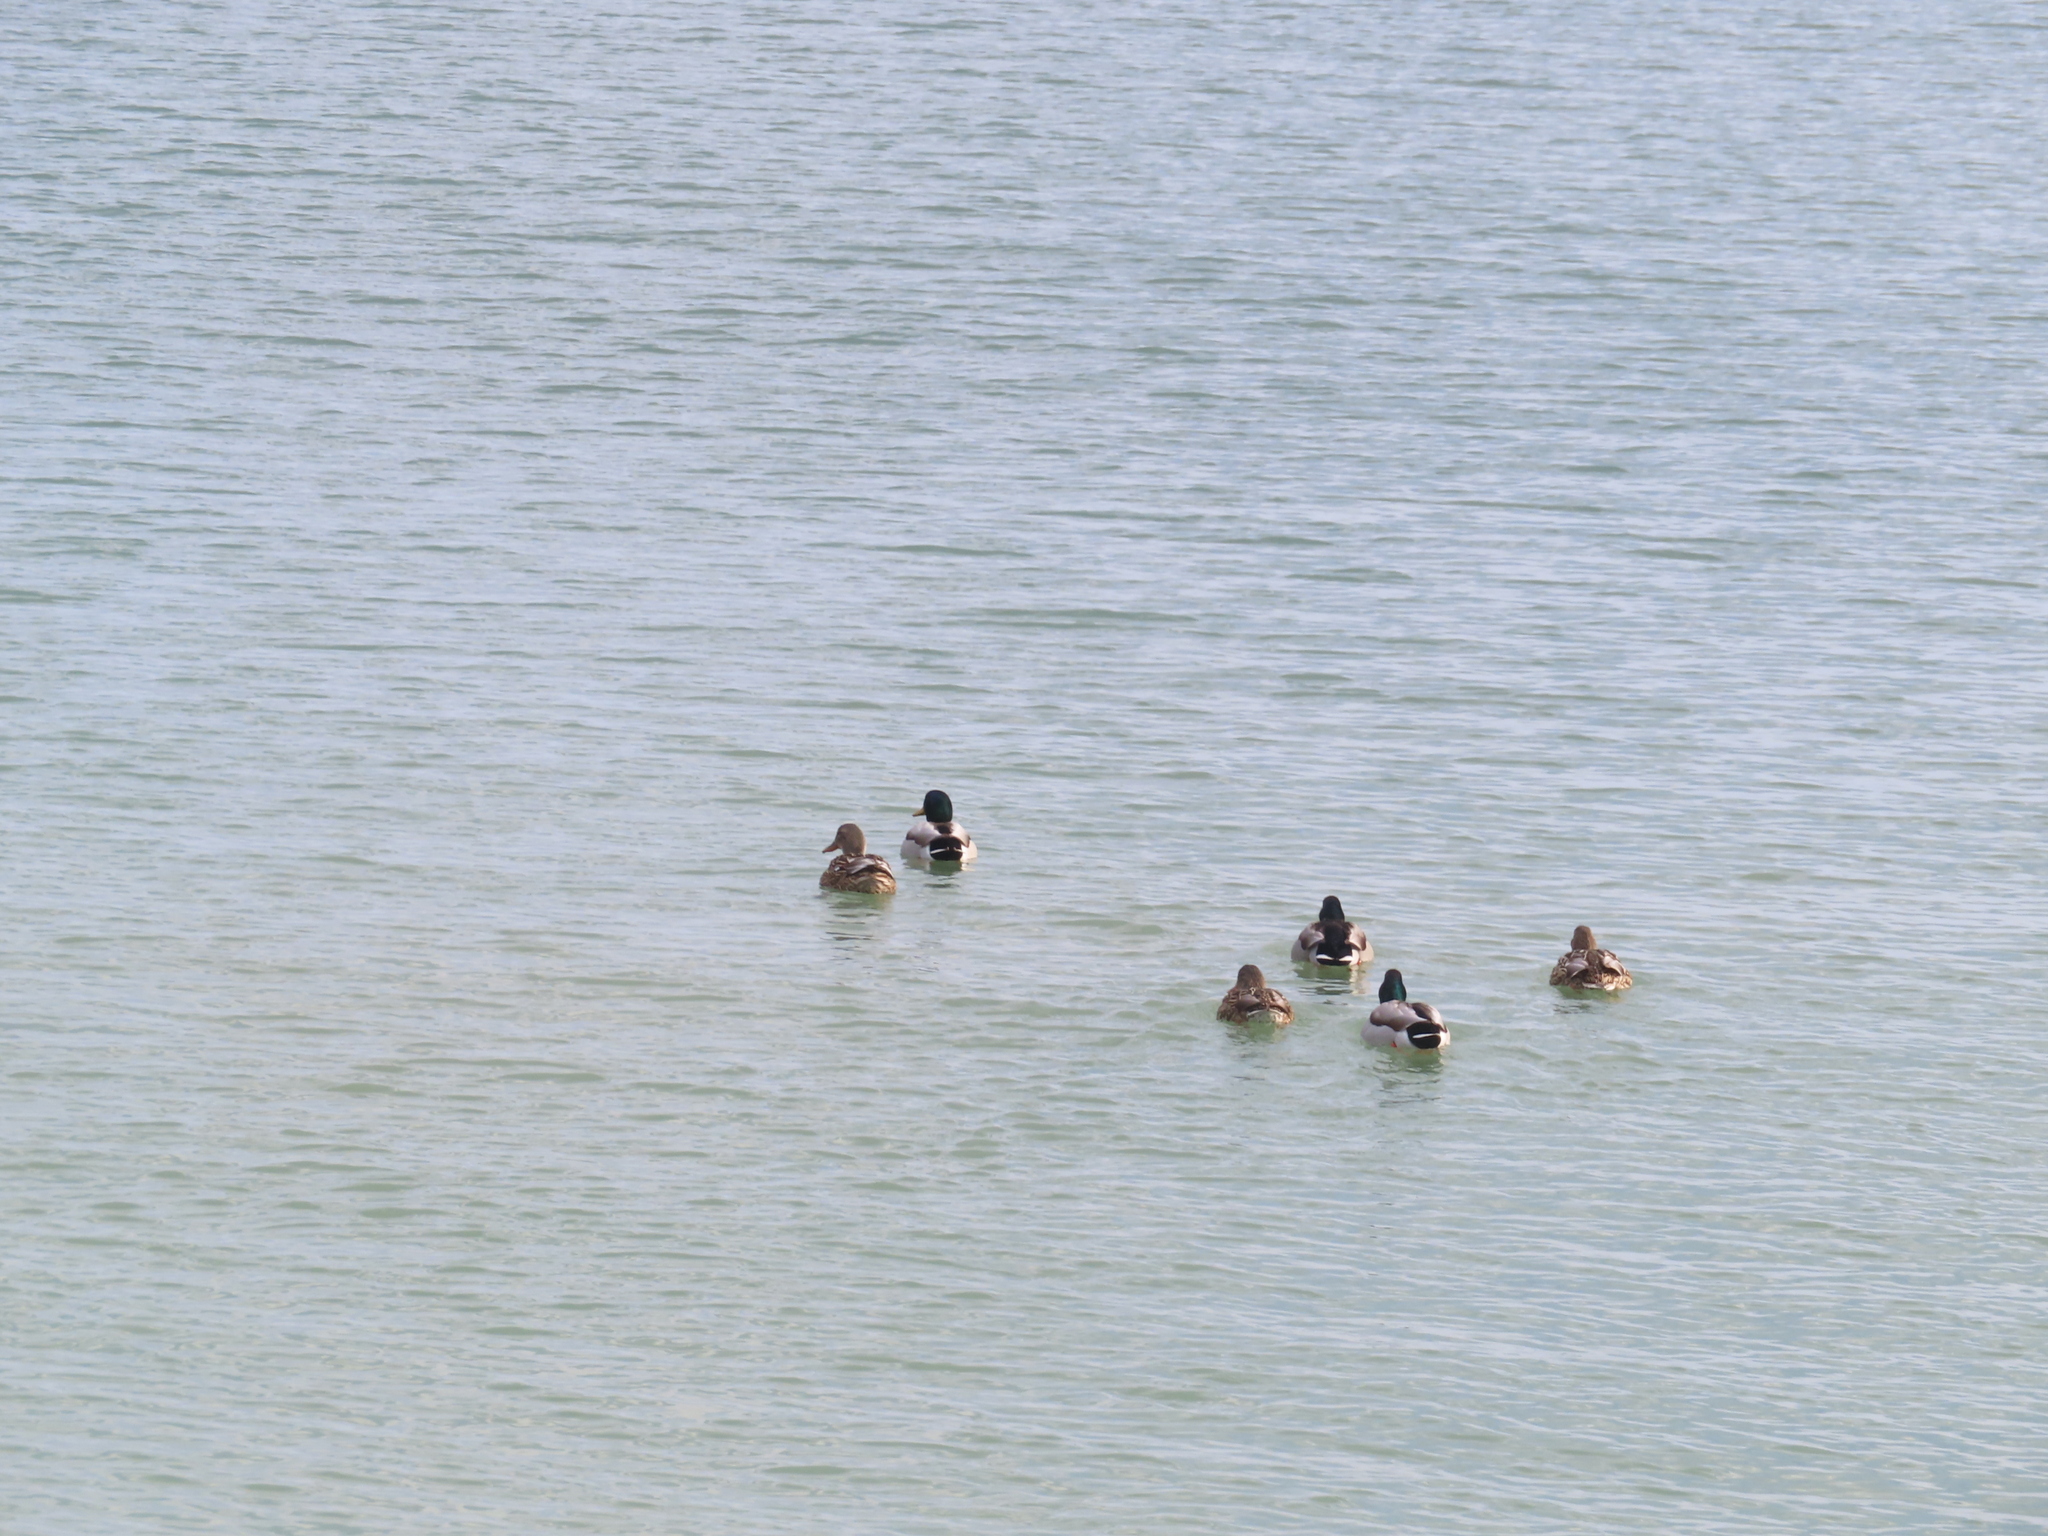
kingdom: Animalia
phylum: Chordata
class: Aves
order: Anseriformes
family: Anatidae
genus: Anas
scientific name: Anas platyrhynchos
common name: Mallard
